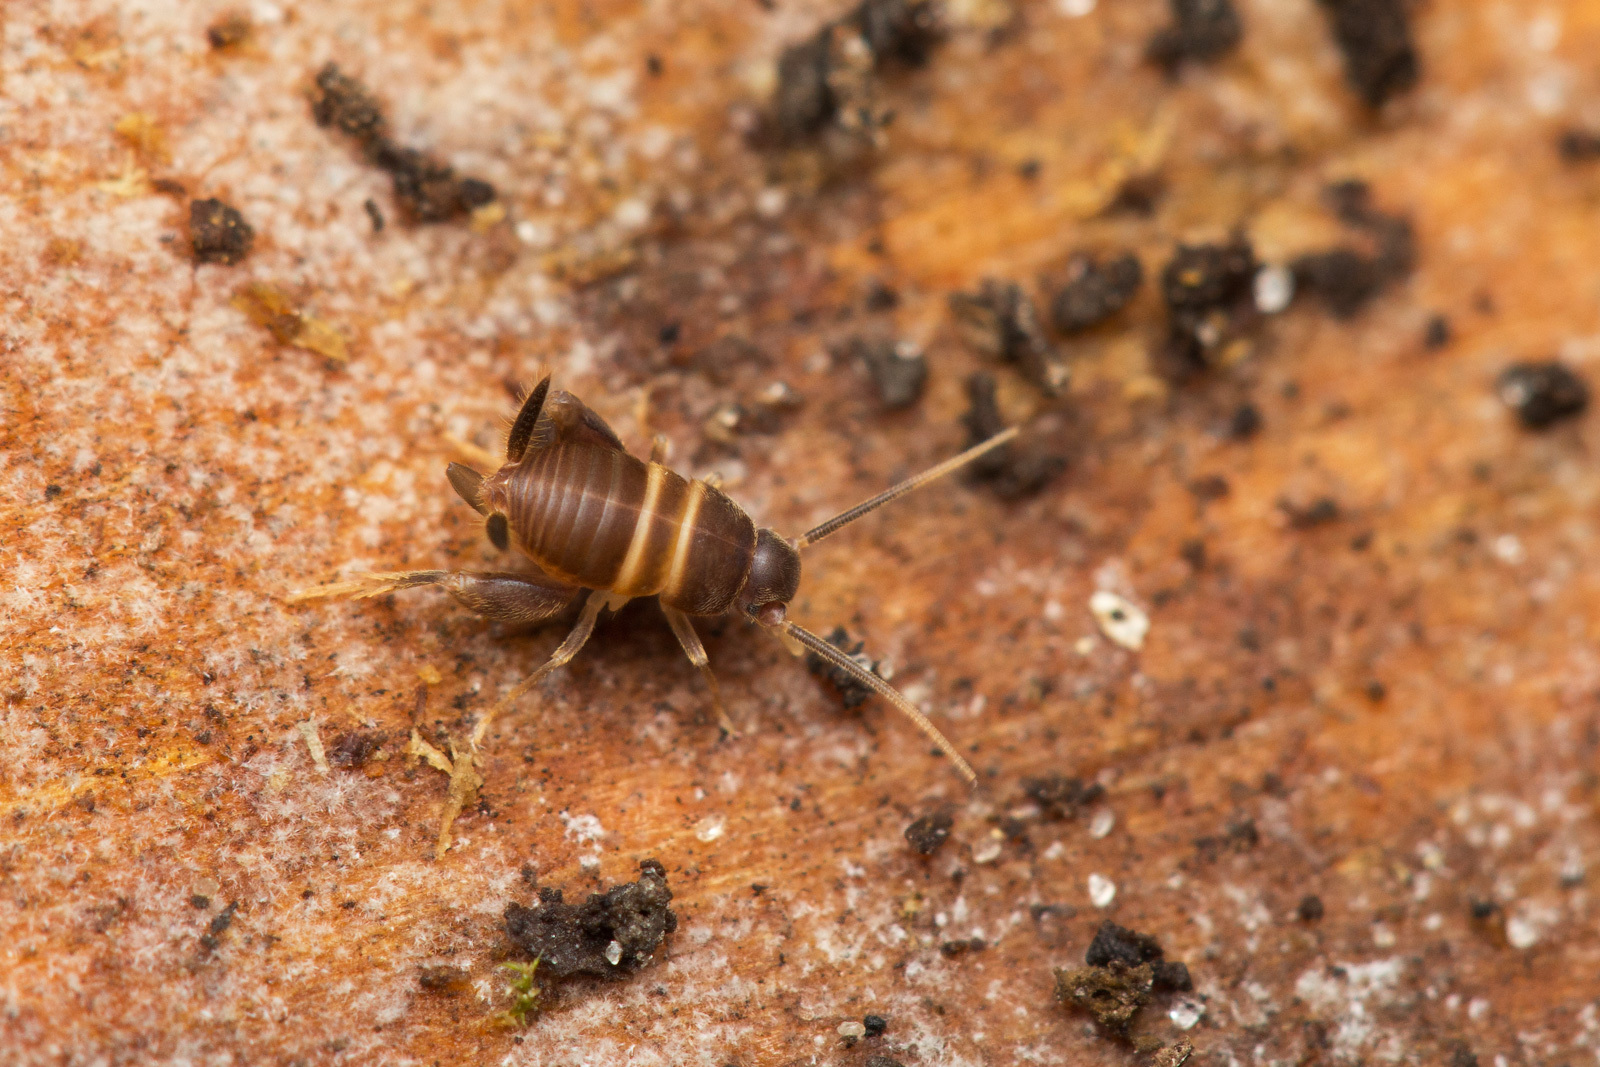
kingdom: Animalia
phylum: Arthropoda
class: Insecta
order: Orthoptera
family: Myrmecophilidae
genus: Myrmecophilus
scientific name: Myrmecophilus acervorum
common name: Ants-nest cricket
